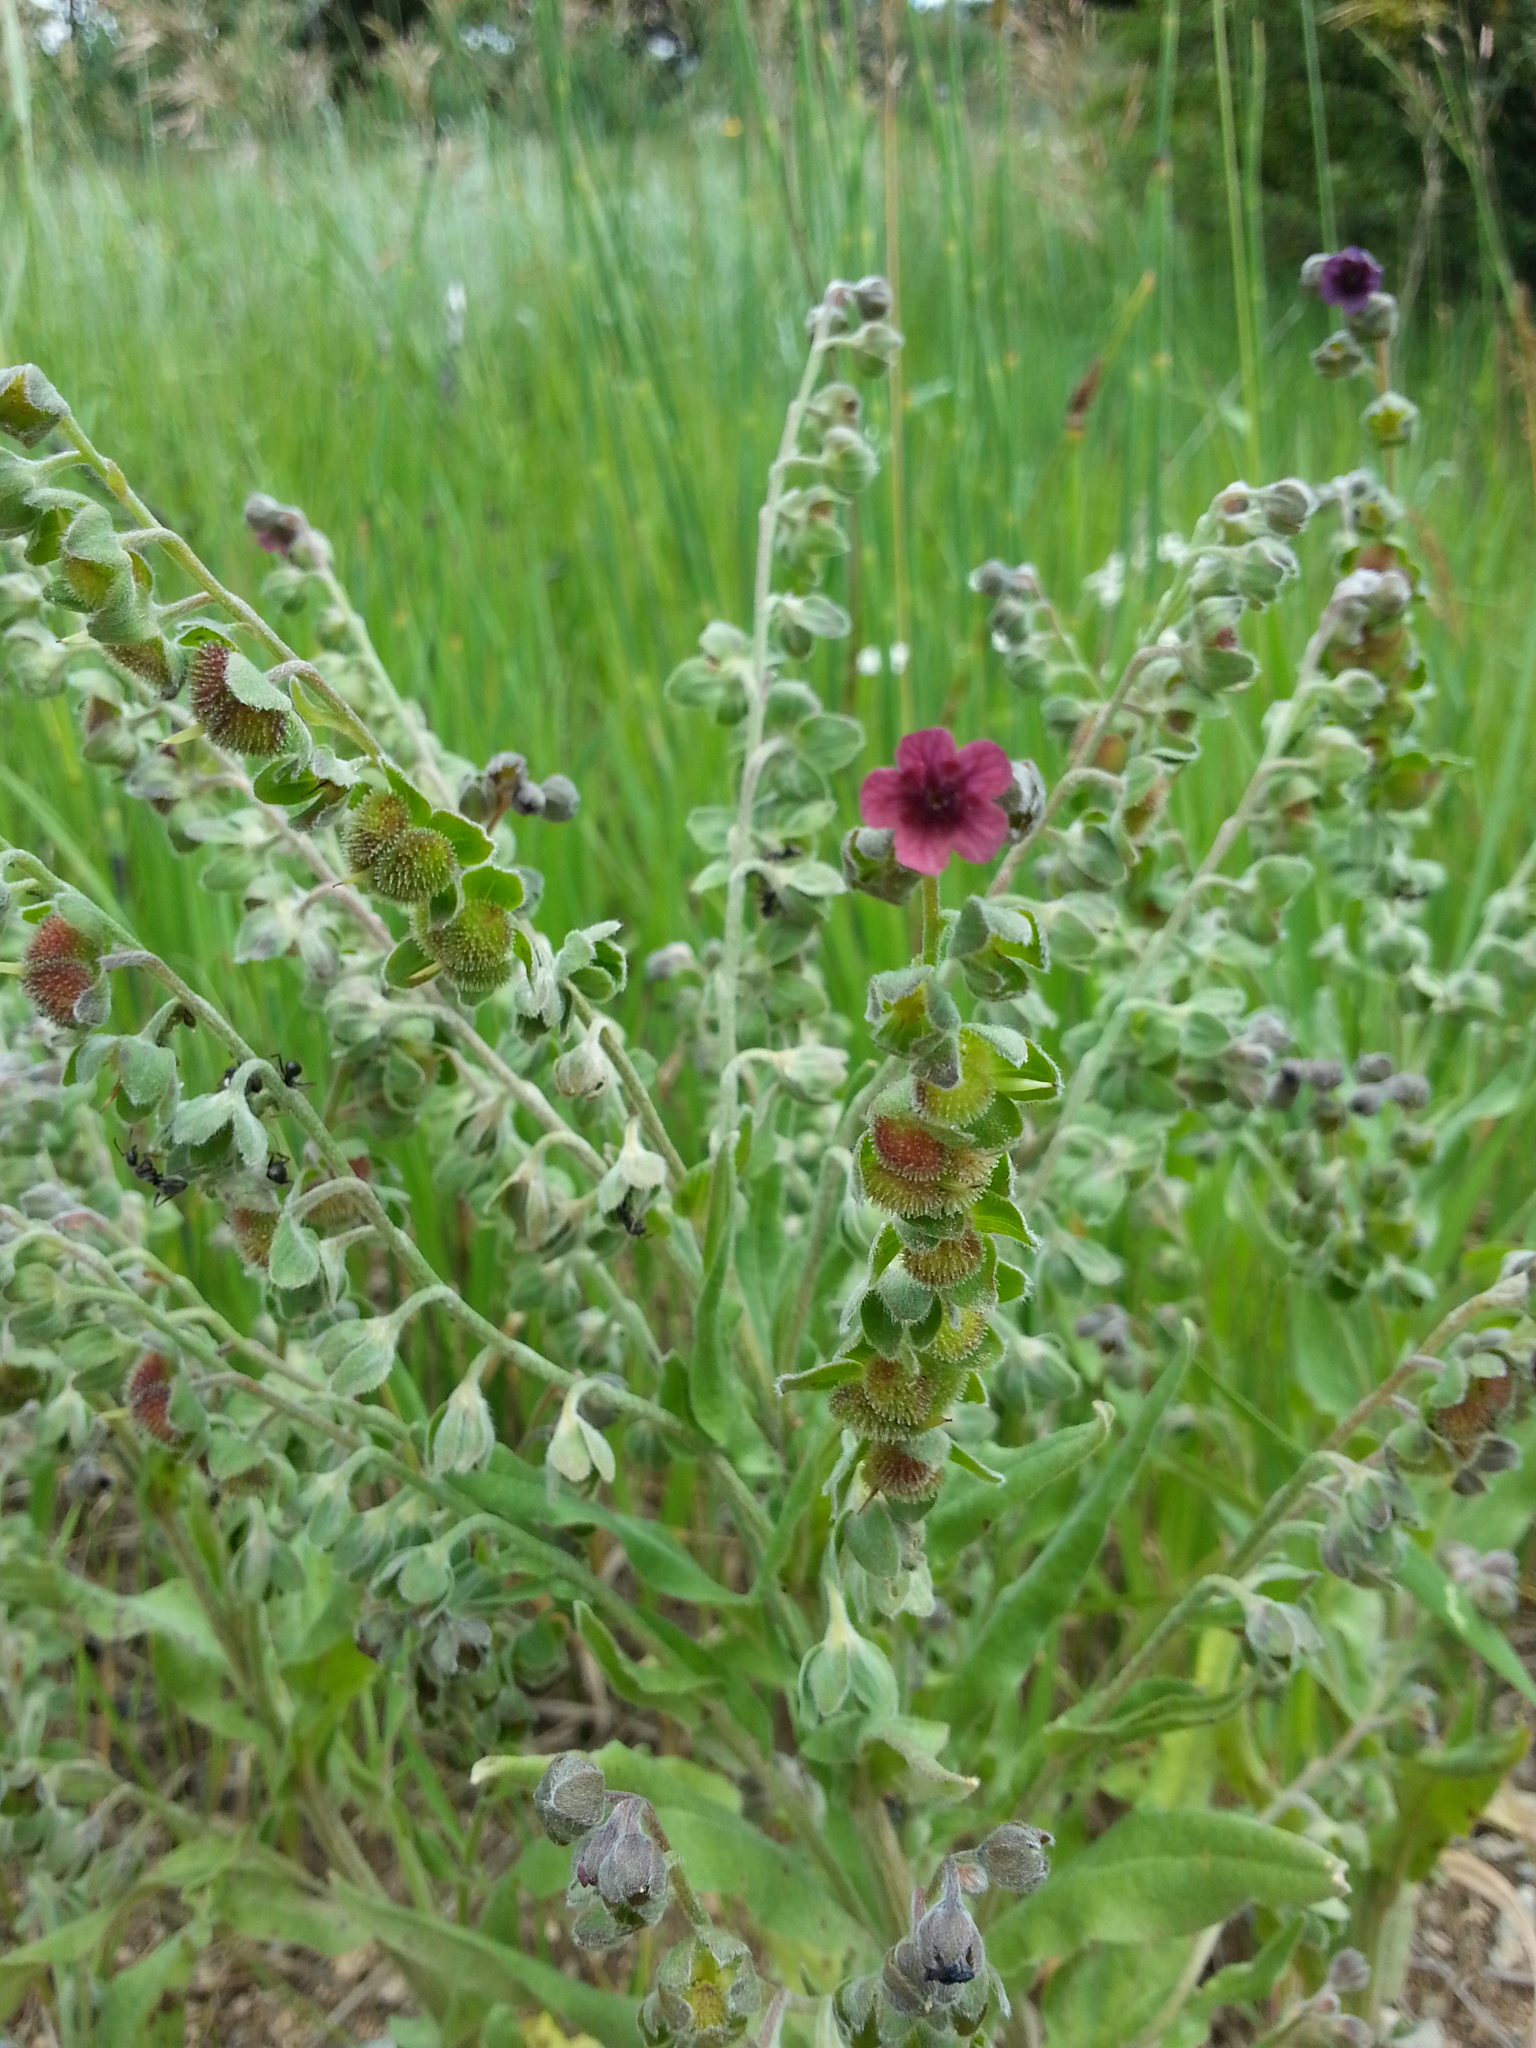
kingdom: Plantae
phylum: Tracheophyta
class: Magnoliopsida
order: Boraginales
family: Boraginaceae
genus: Cynoglossum
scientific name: Cynoglossum officinale
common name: Hound's-tongue
